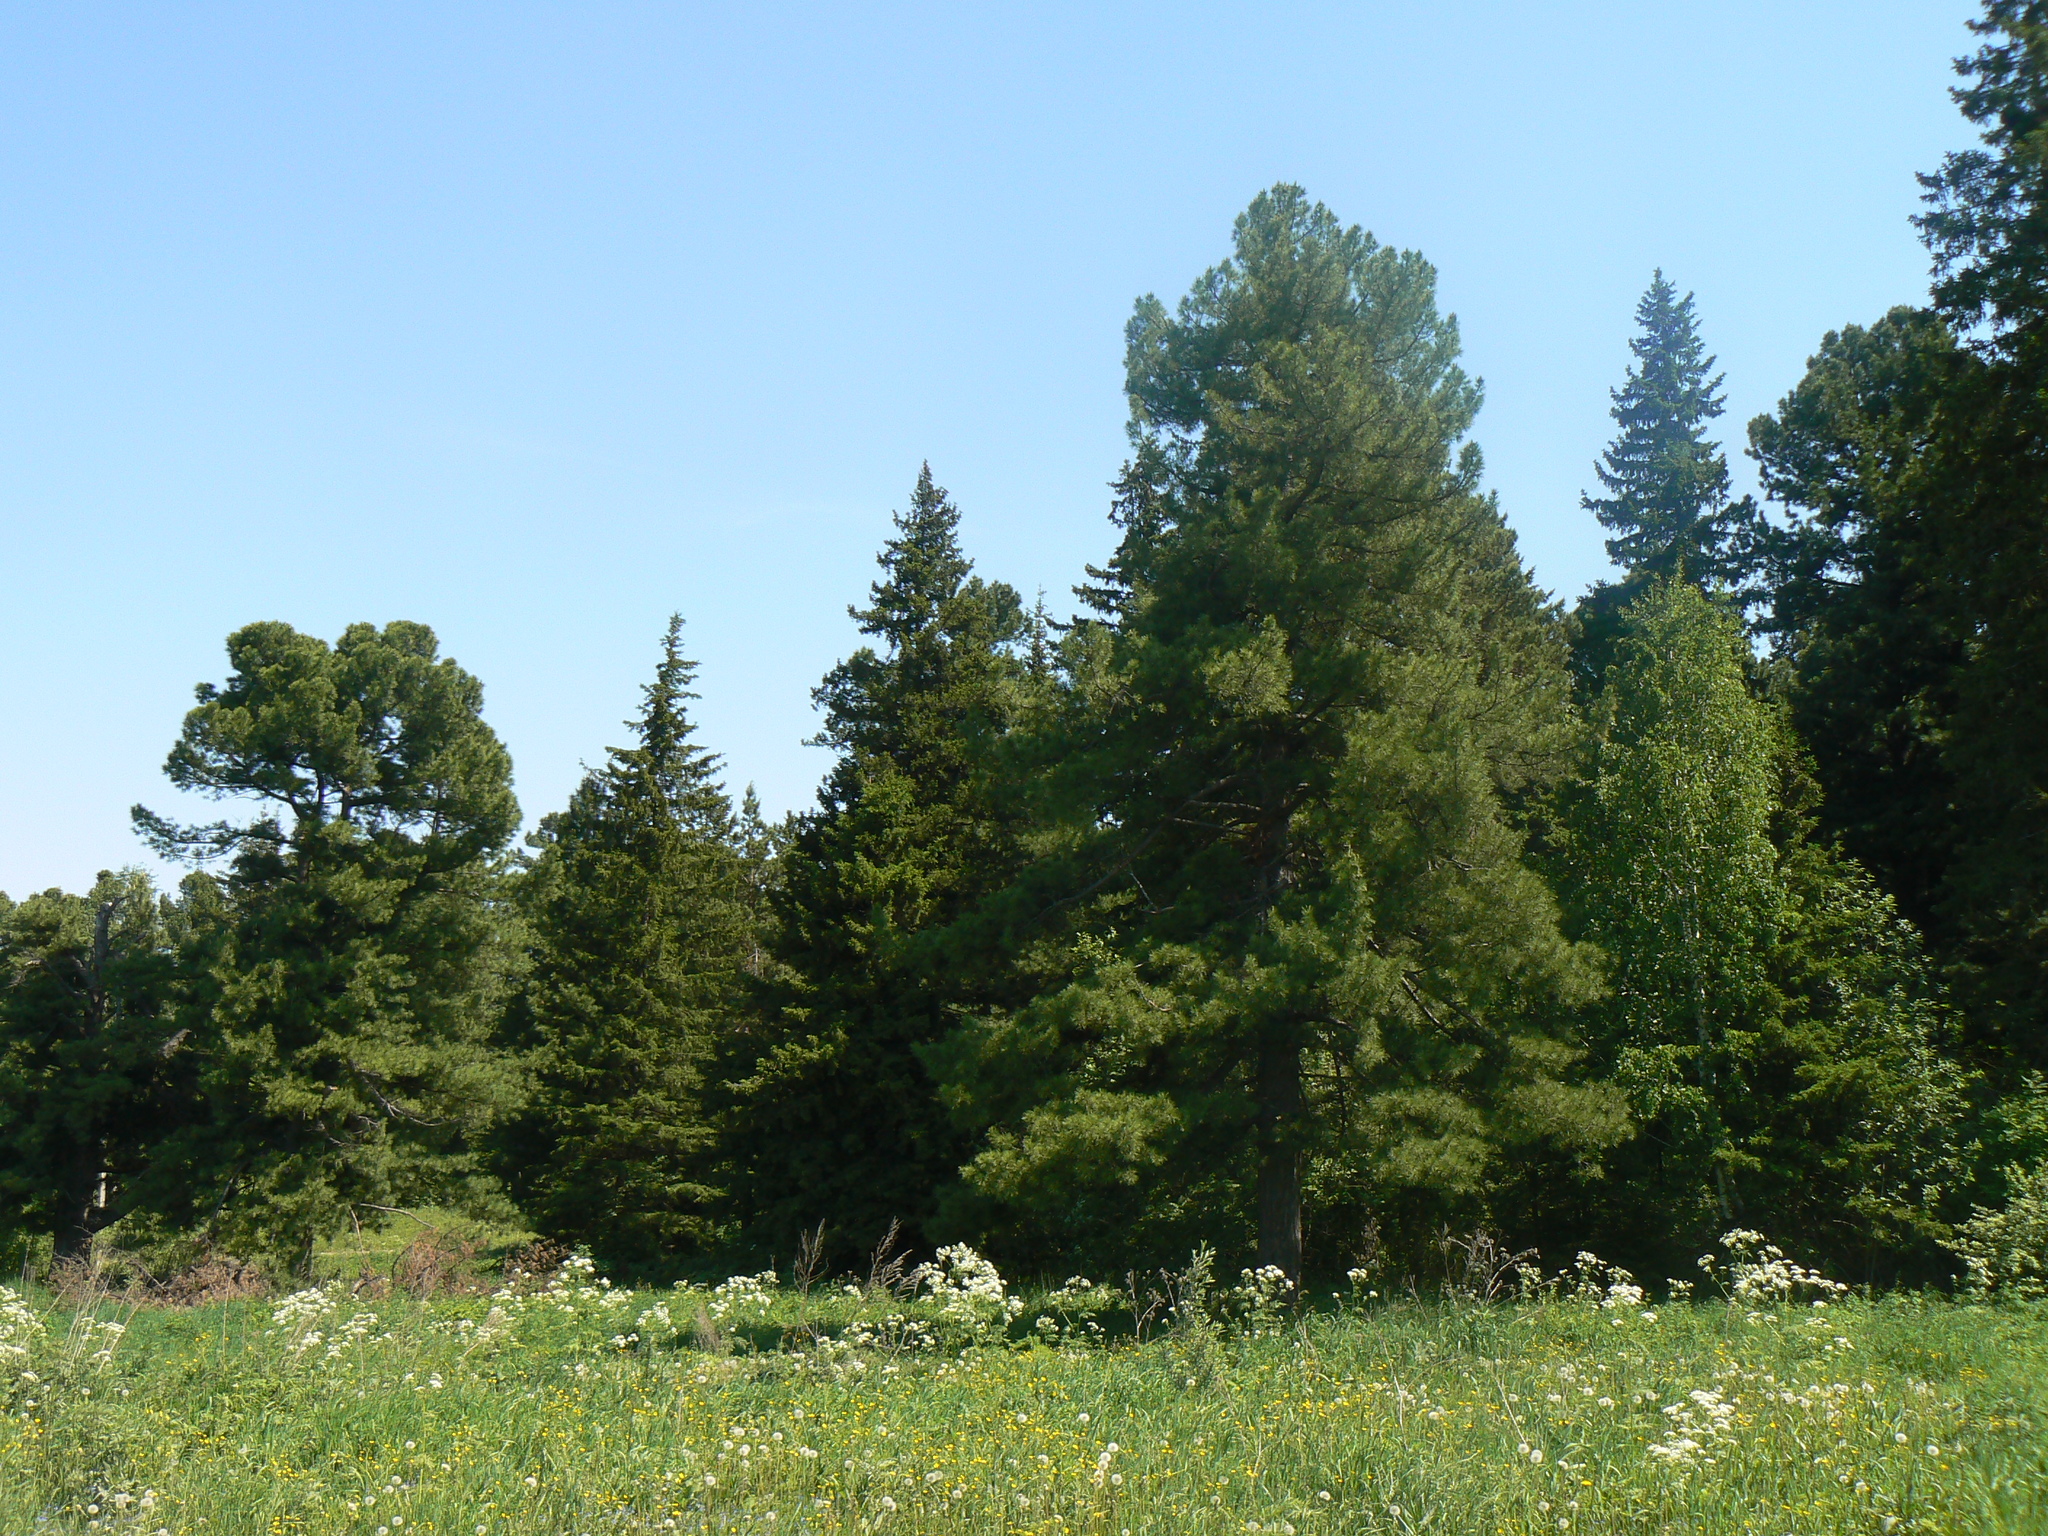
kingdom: Plantae
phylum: Tracheophyta
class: Pinopsida
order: Pinales
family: Pinaceae
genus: Pinus
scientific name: Pinus sibirica
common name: Siberian pine
